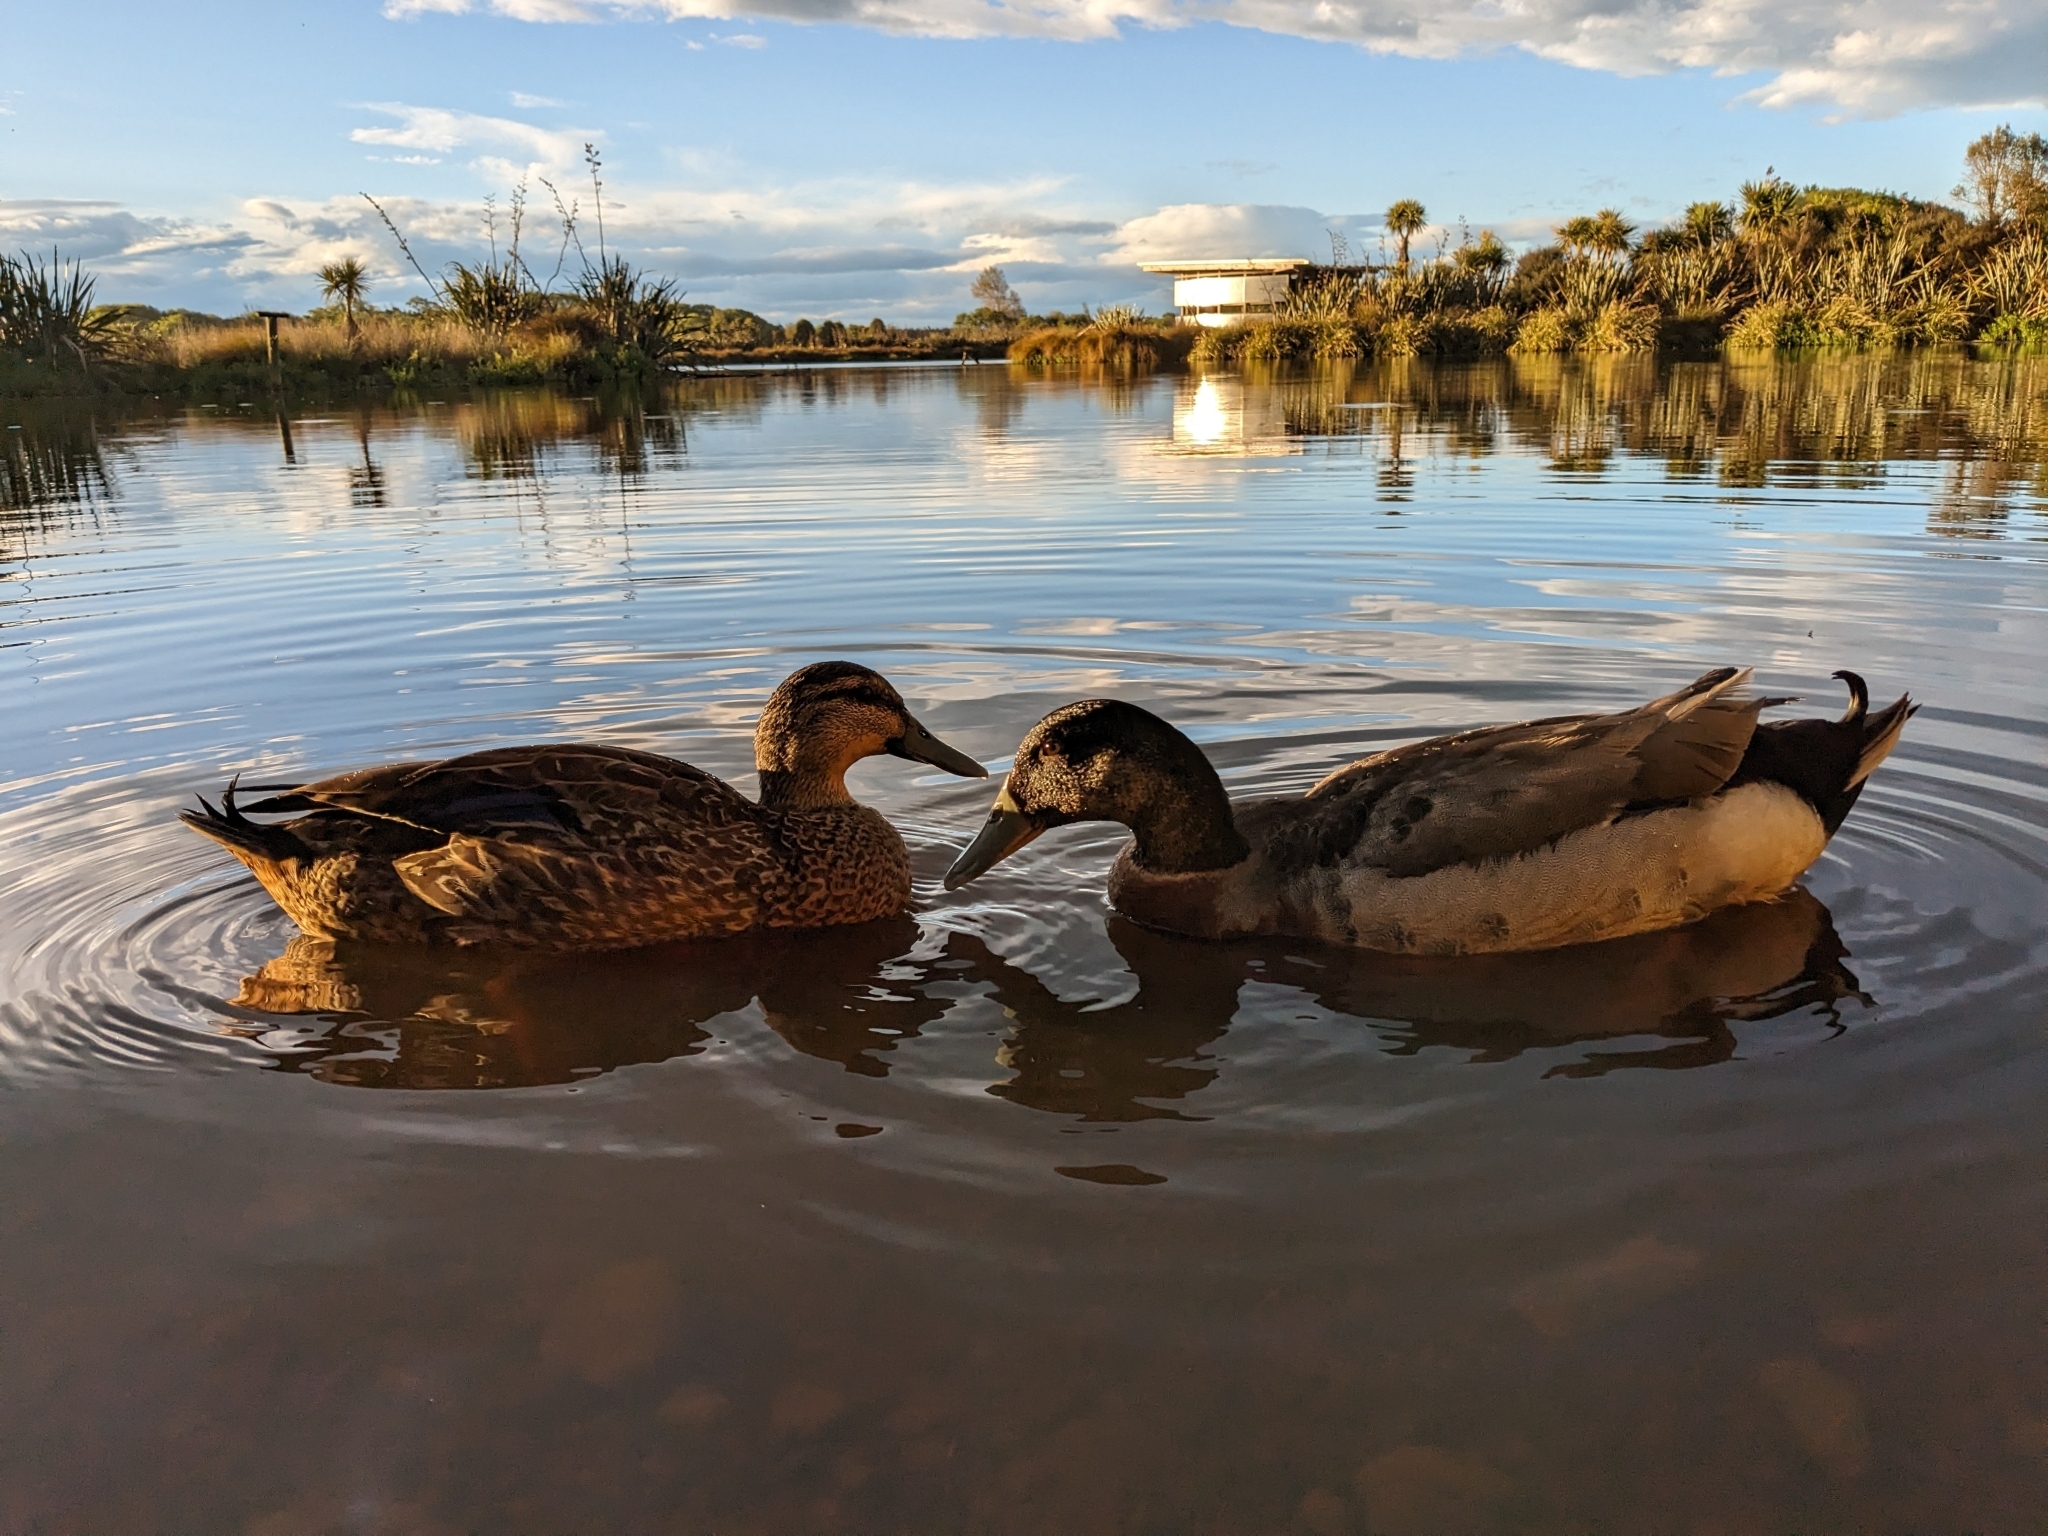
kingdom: Animalia
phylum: Chordata
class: Aves
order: Anseriformes
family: Anatidae
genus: Anas
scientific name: Anas platyrhynchos
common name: Mallard
